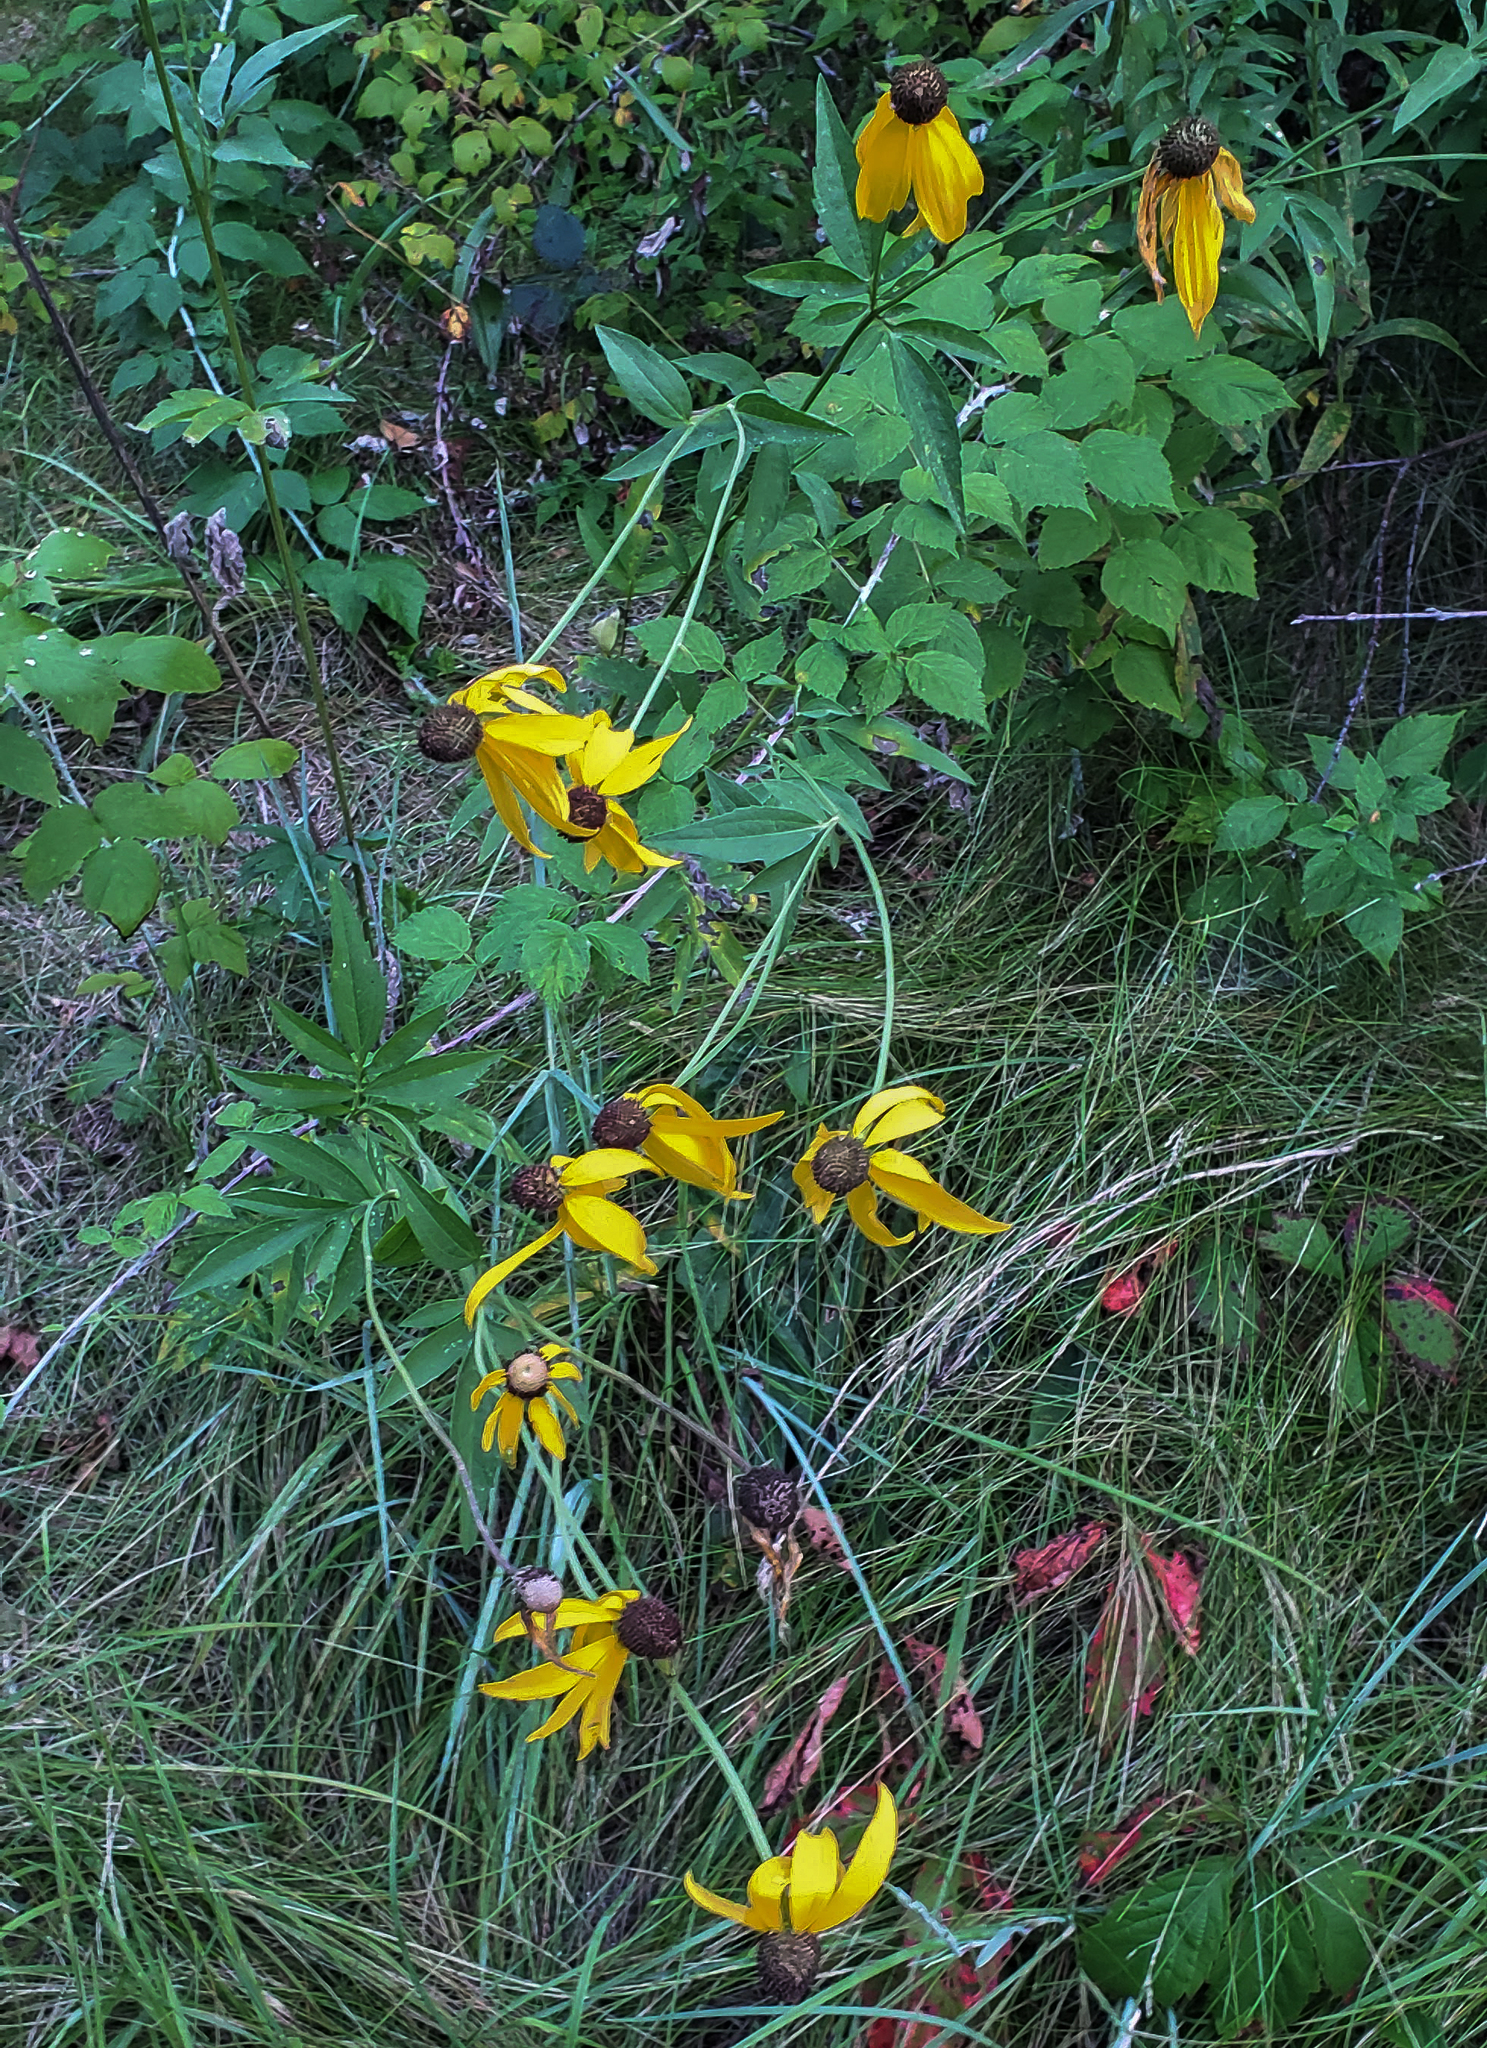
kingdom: Plantae
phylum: Tracheophyta
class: Magnoliopsida
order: Asterales
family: Asteraceae
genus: Ratibida
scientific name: Ratibida pinnata
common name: Drooping prairie-coneflower
